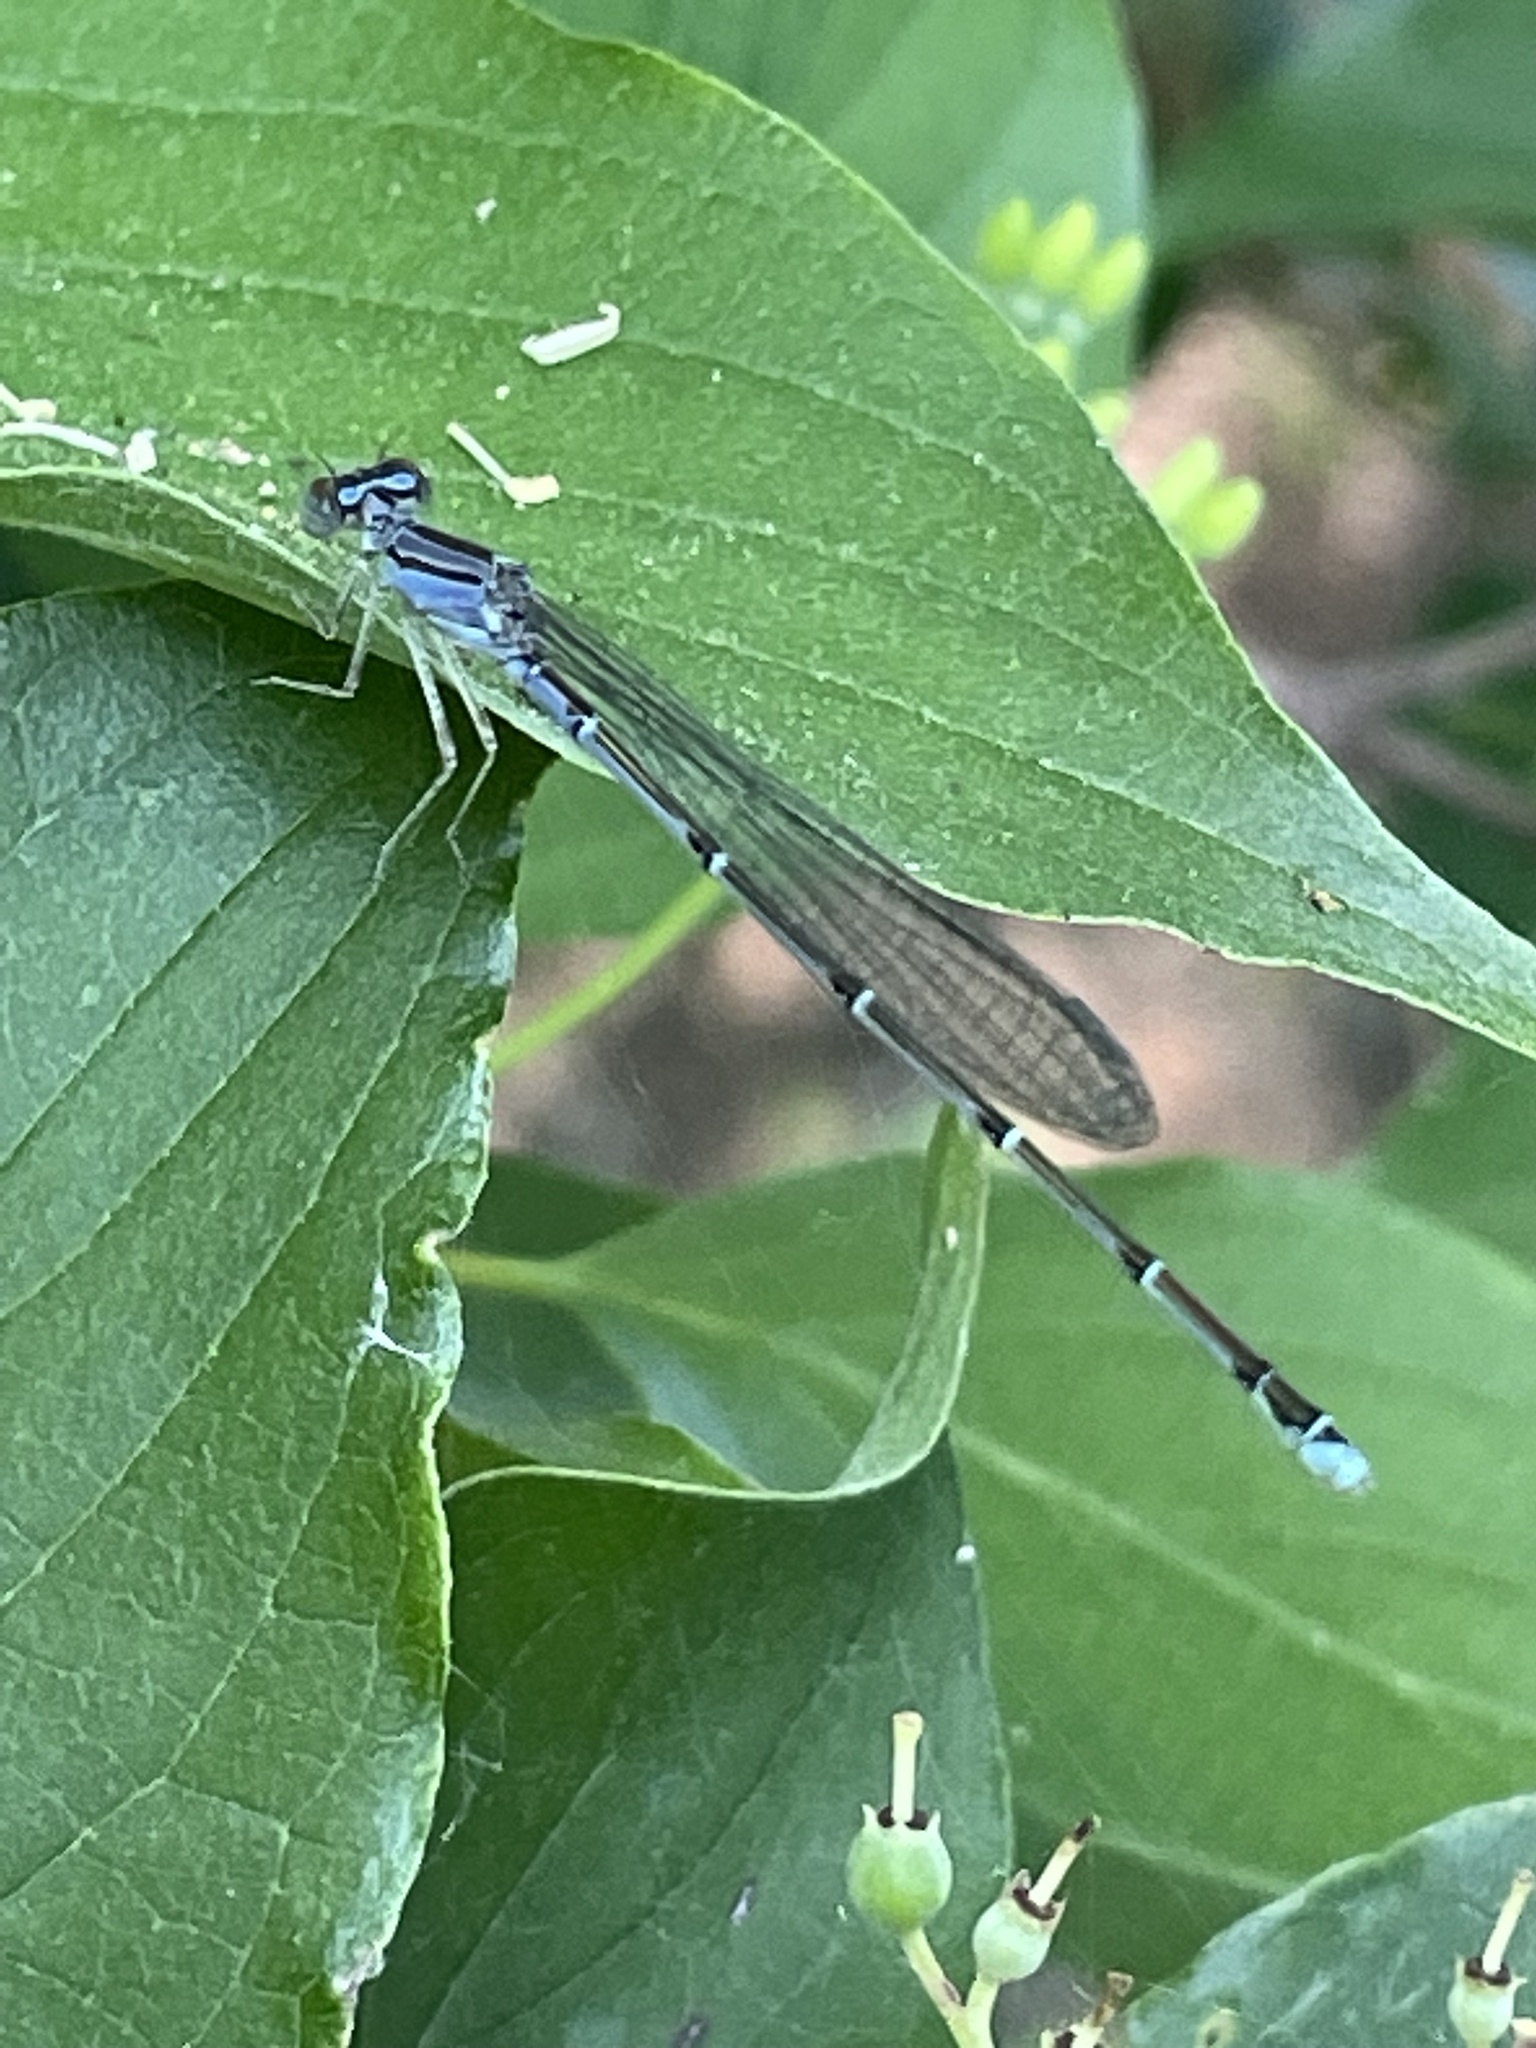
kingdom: Animalia
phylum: Arthropoda
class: Insecta
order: Odonata
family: Coenagrionidae
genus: Enallagma
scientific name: Enallagma signatum
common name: Orange bluet
